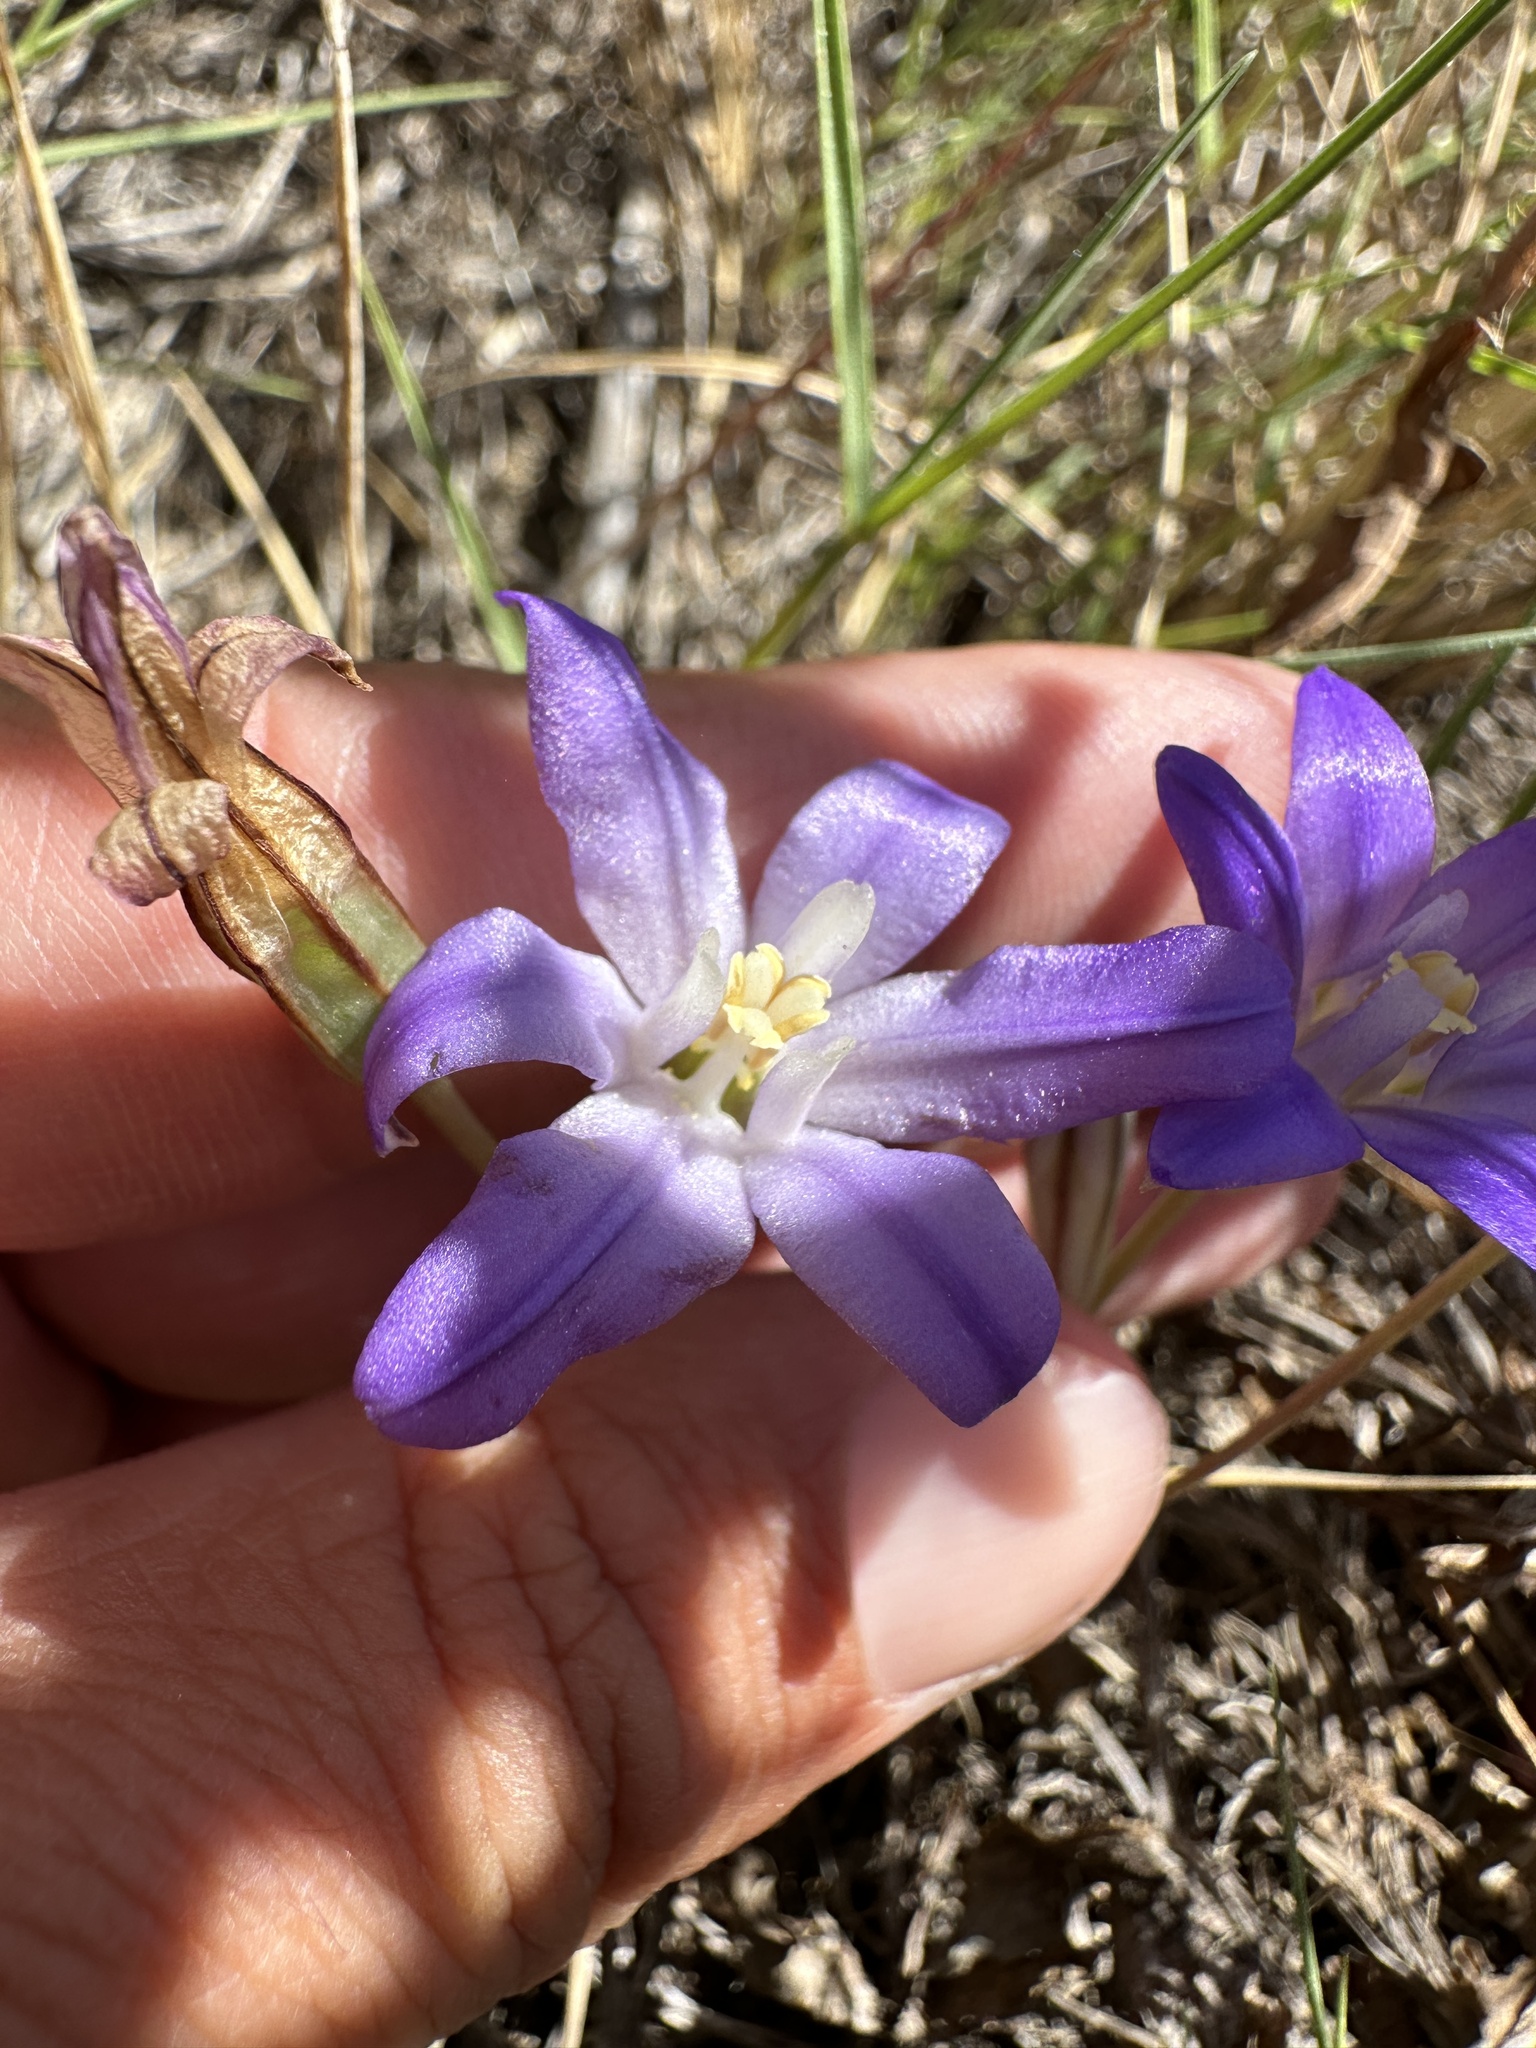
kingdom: Plantae
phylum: Tracheophyta
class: Liliopsida
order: Asparagales
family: Asparagaceae
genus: Brodiaea
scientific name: Brodiaea terrestris
